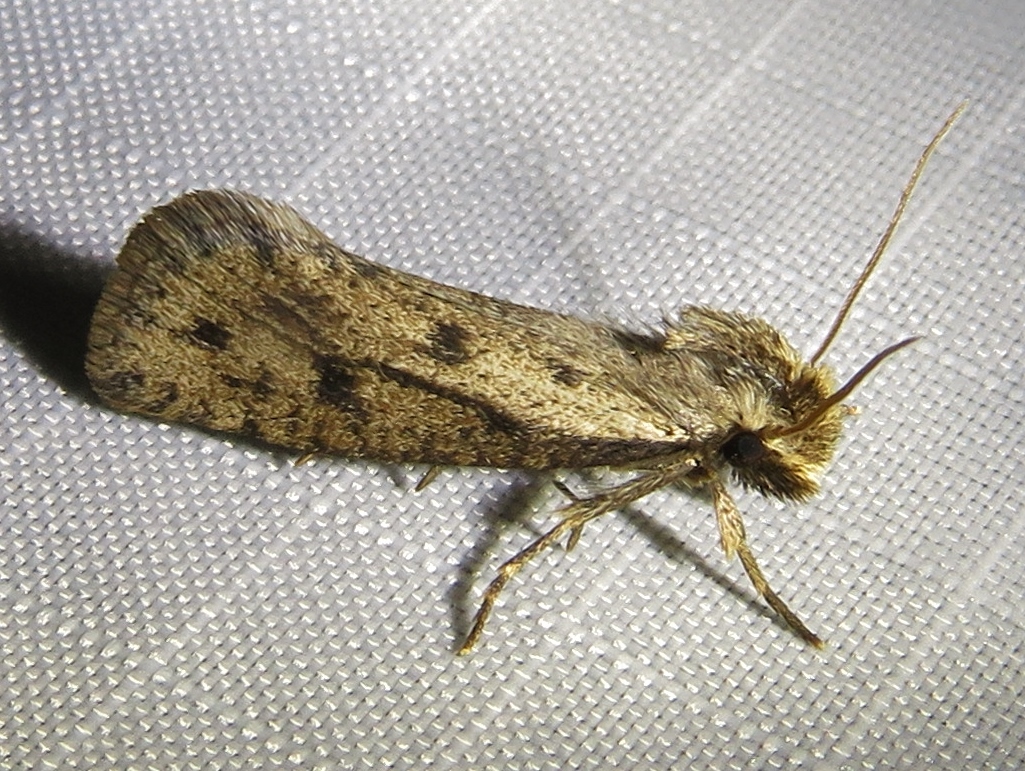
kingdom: Animalia
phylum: Arthropoda
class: Insecta
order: Lepidoptera
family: Tineidae
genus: Acrolophus
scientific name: Acrolophus mortipennella
